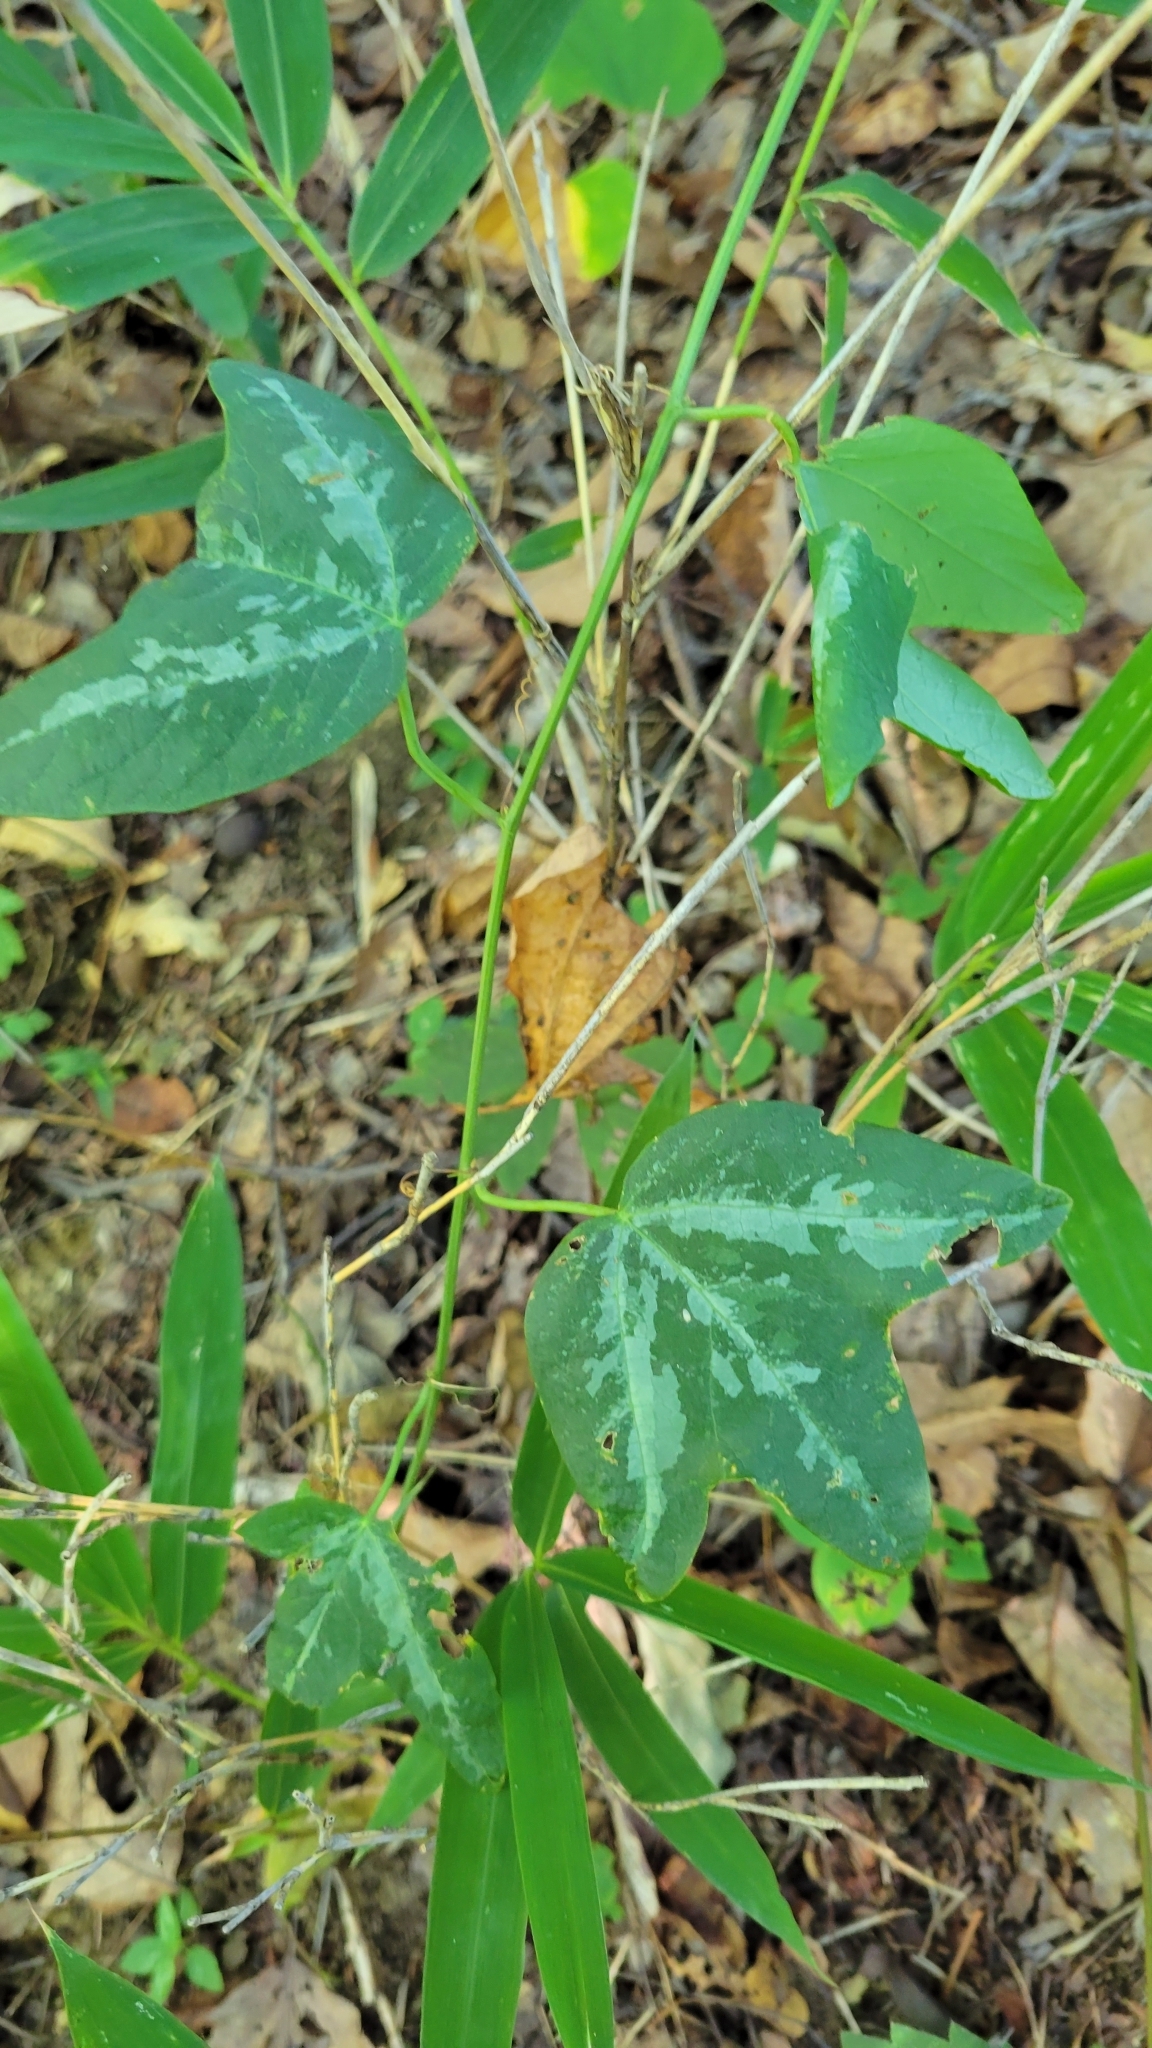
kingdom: Plantae
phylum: Tracheophyta
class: Magnoliopsida
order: Malpighiales
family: Passifloraceae
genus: Passiflora
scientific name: Passiflora lutea
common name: Yellow passionflower
